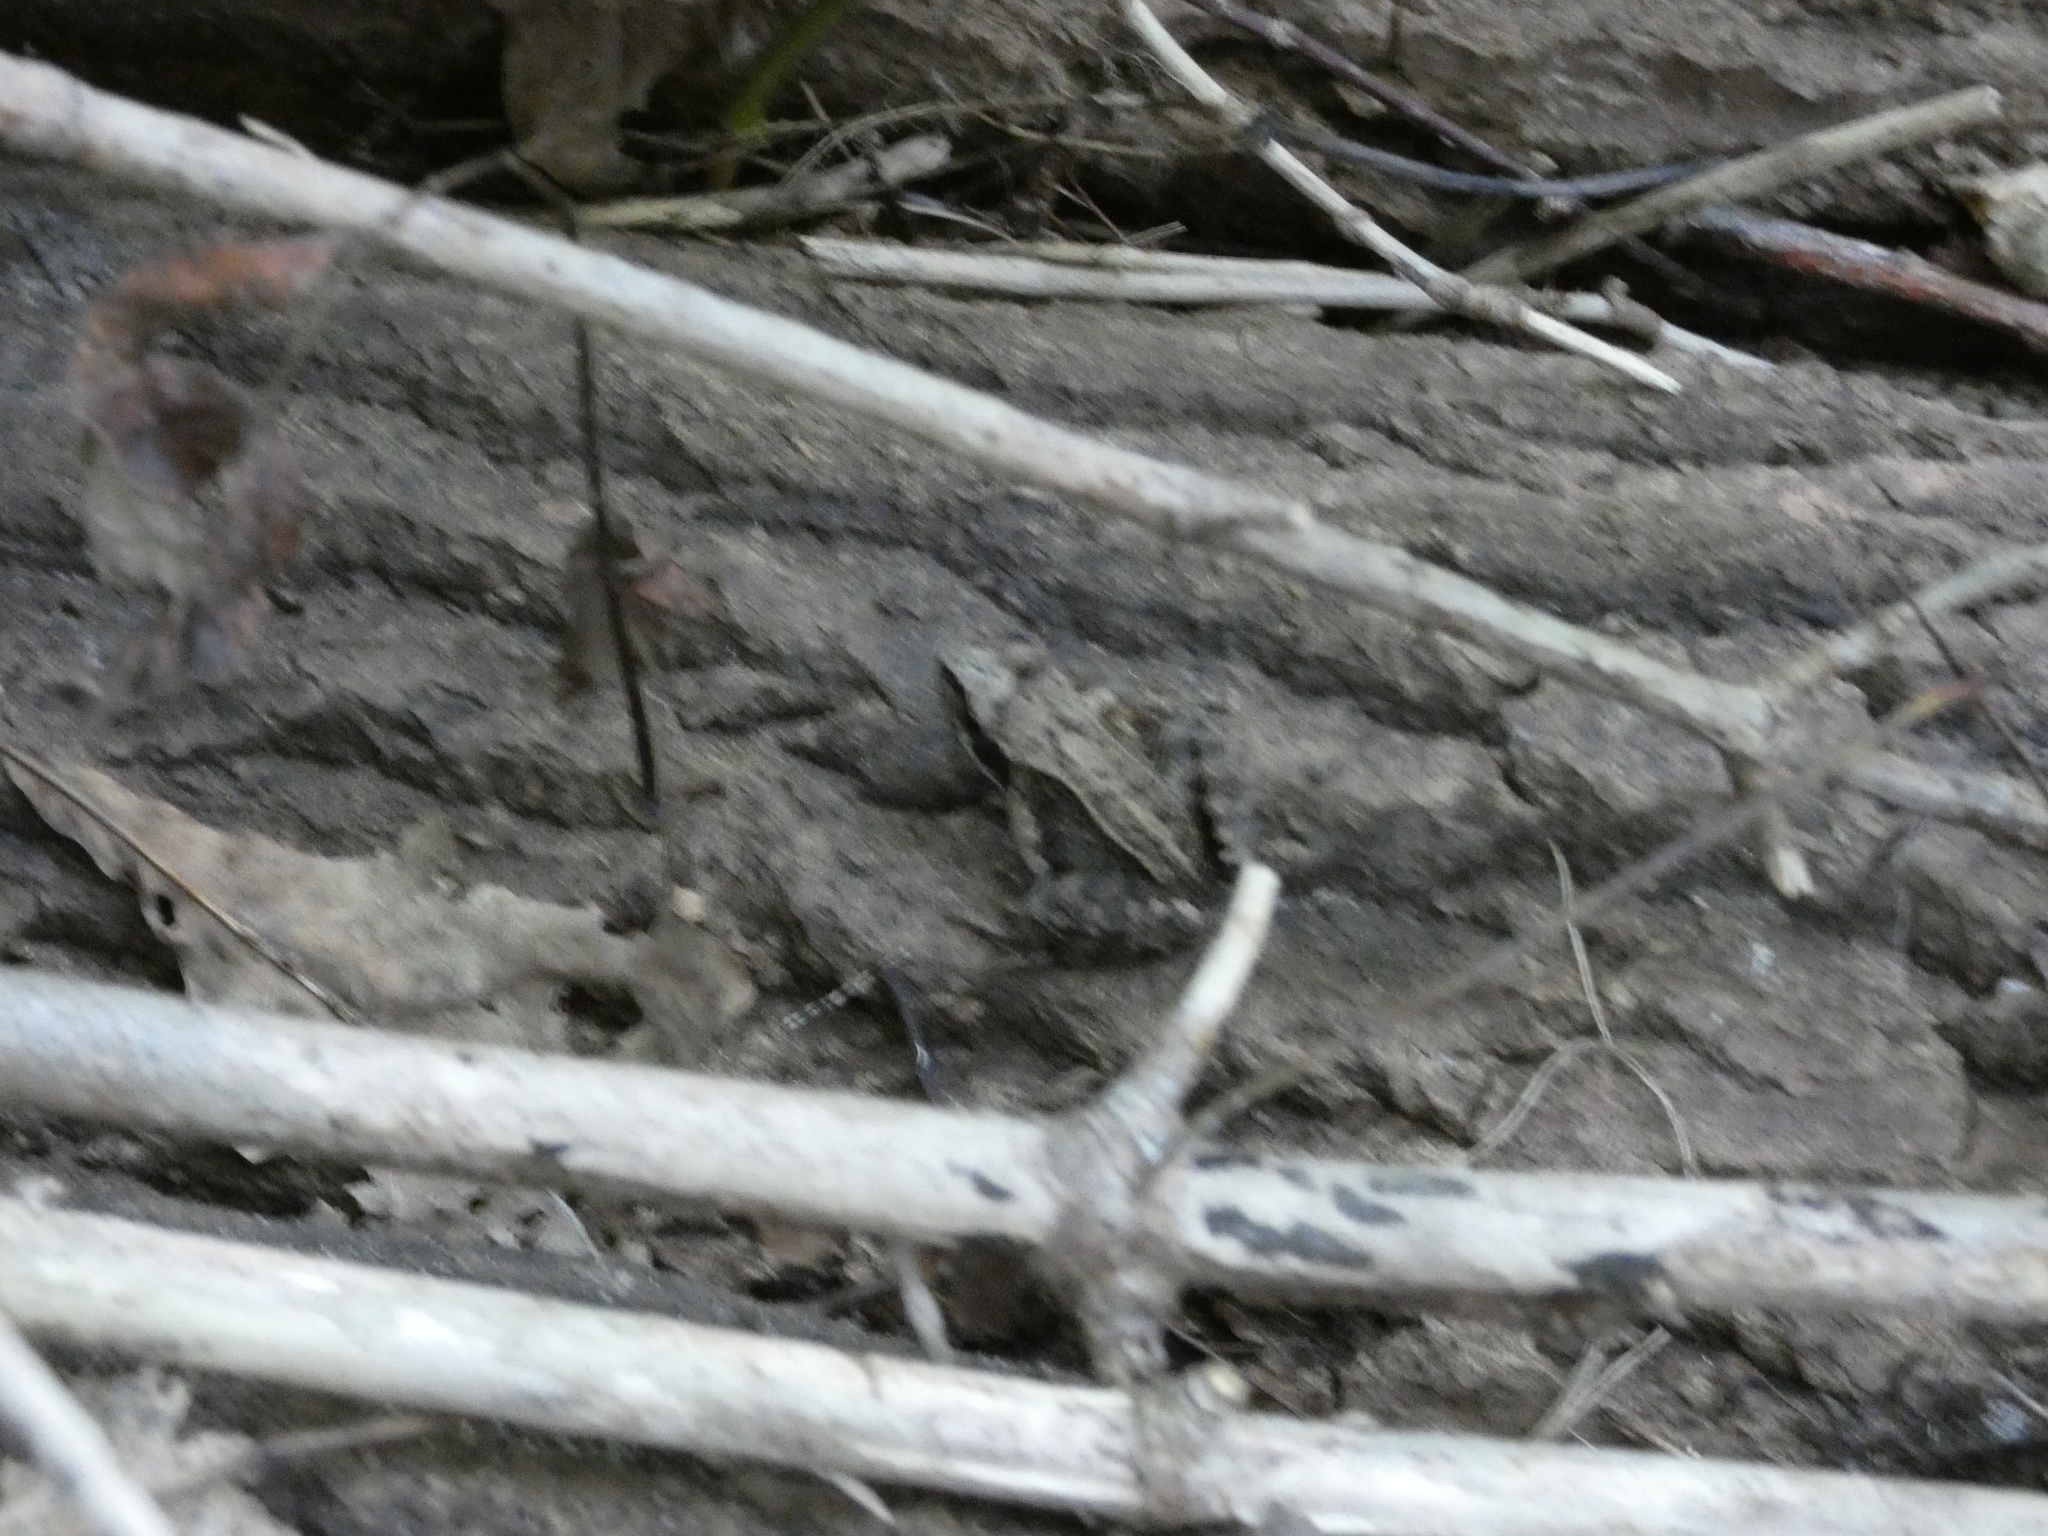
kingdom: Animalia
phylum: Chordata
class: Amphibia
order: Anura
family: Ranidae
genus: Rana
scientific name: Rana temporaria
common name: Common frog
